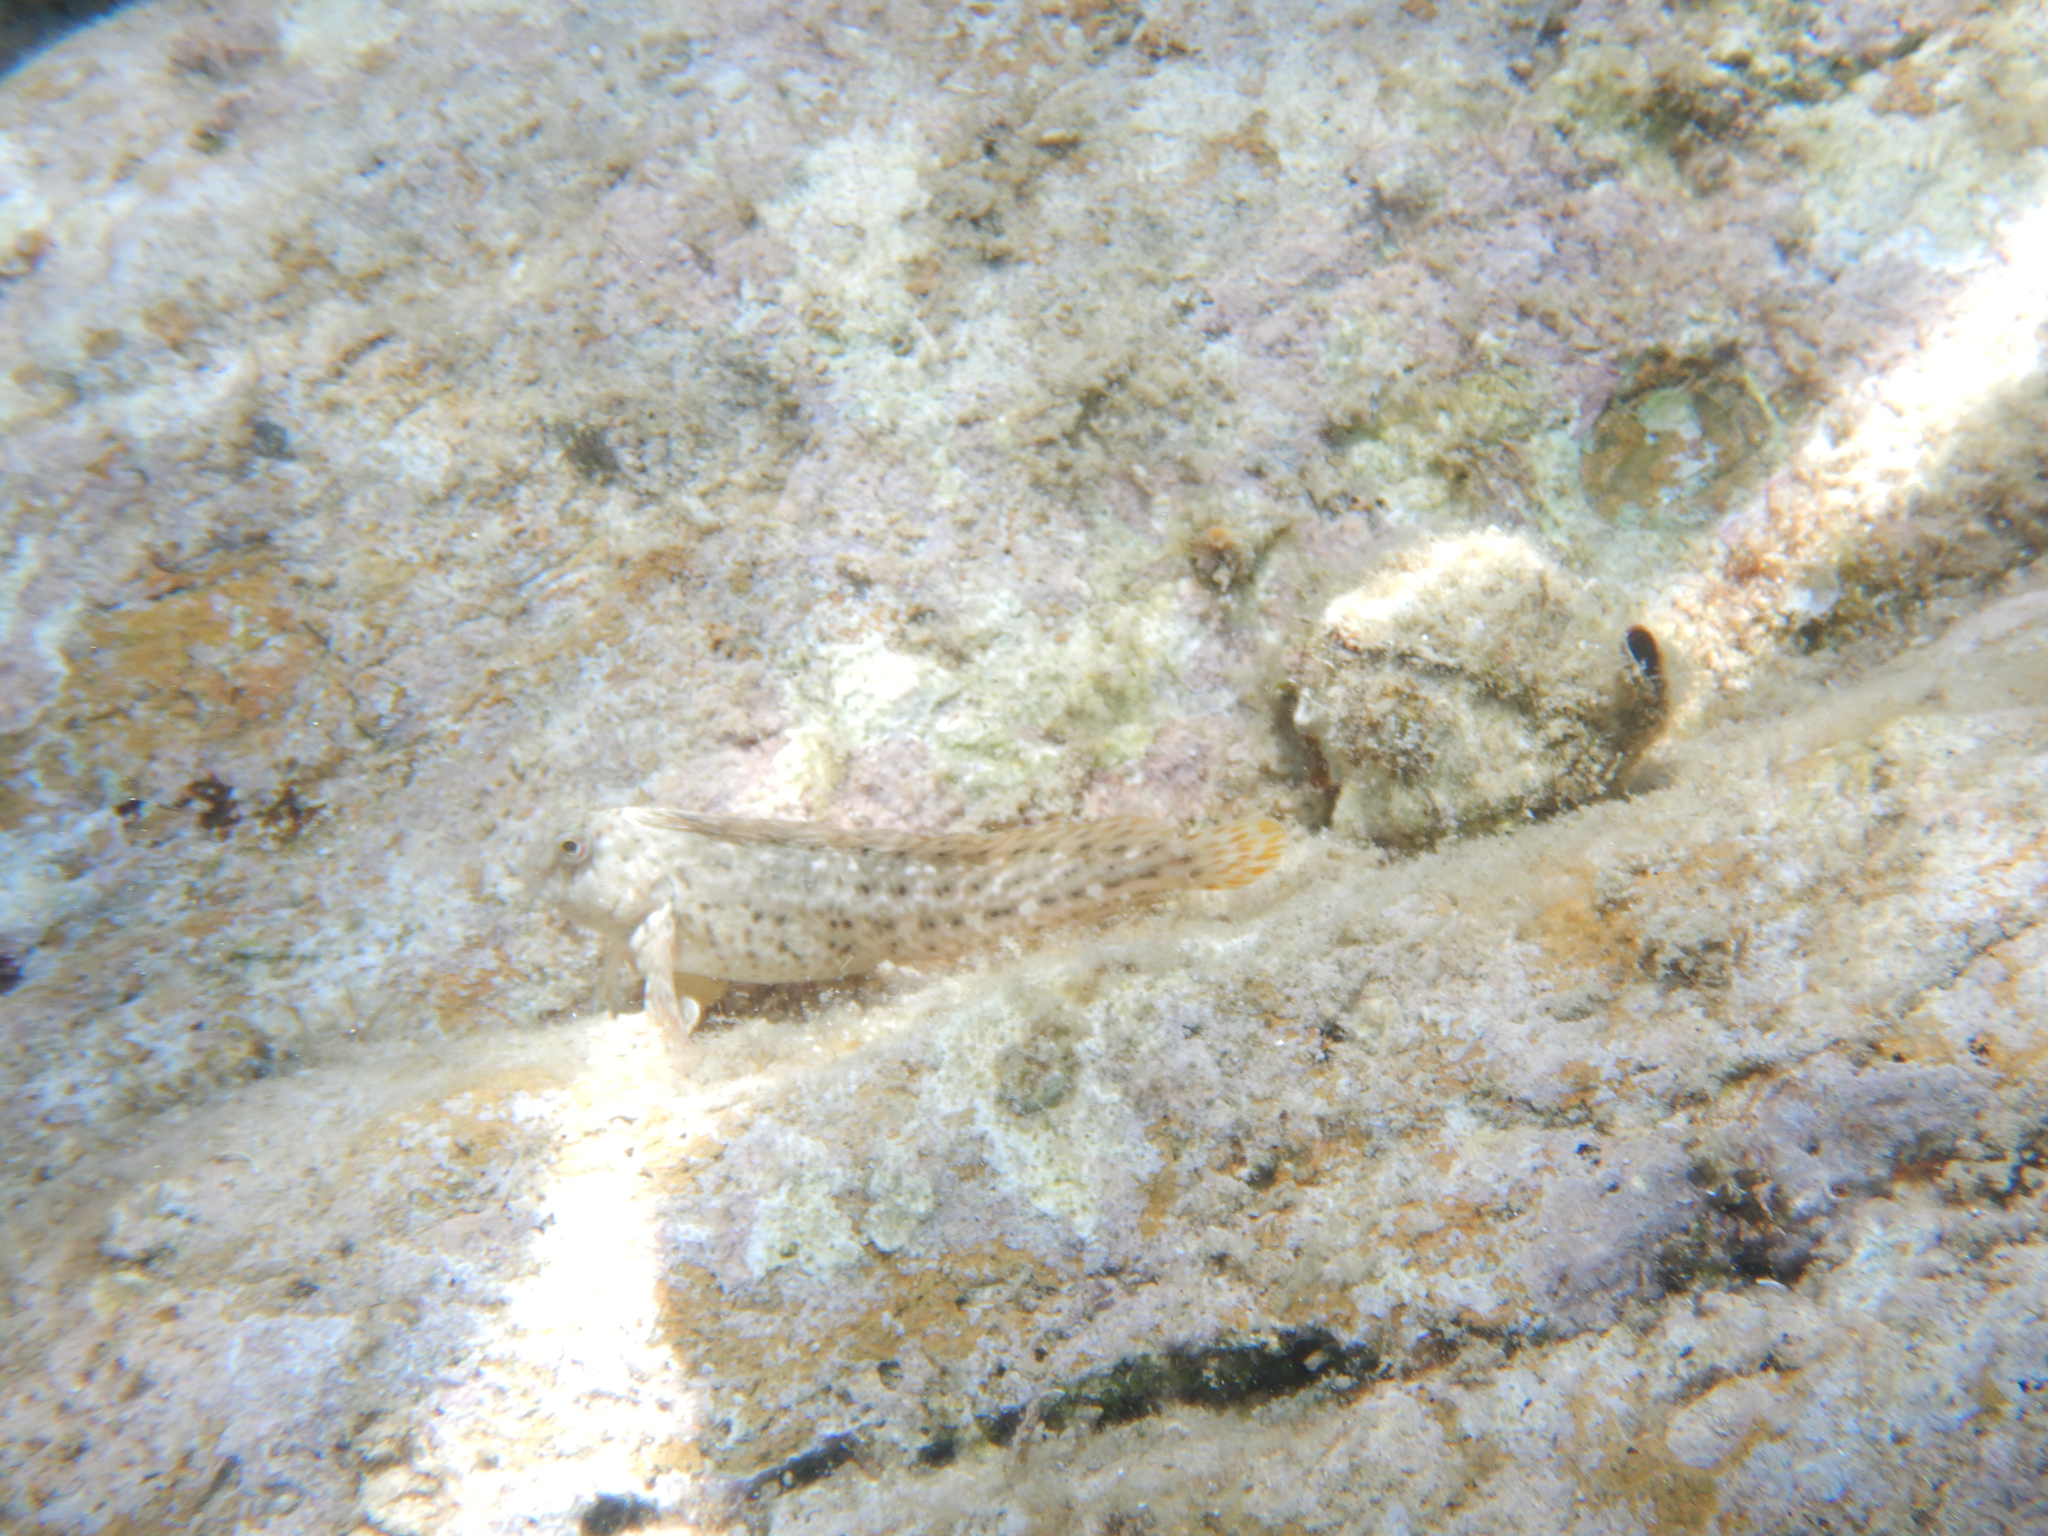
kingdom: Animalia
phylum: Chordata
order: Perciformes
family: Blenniidae
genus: Parablennius
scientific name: Parablennius sanguinolentus
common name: Black sea blenny
